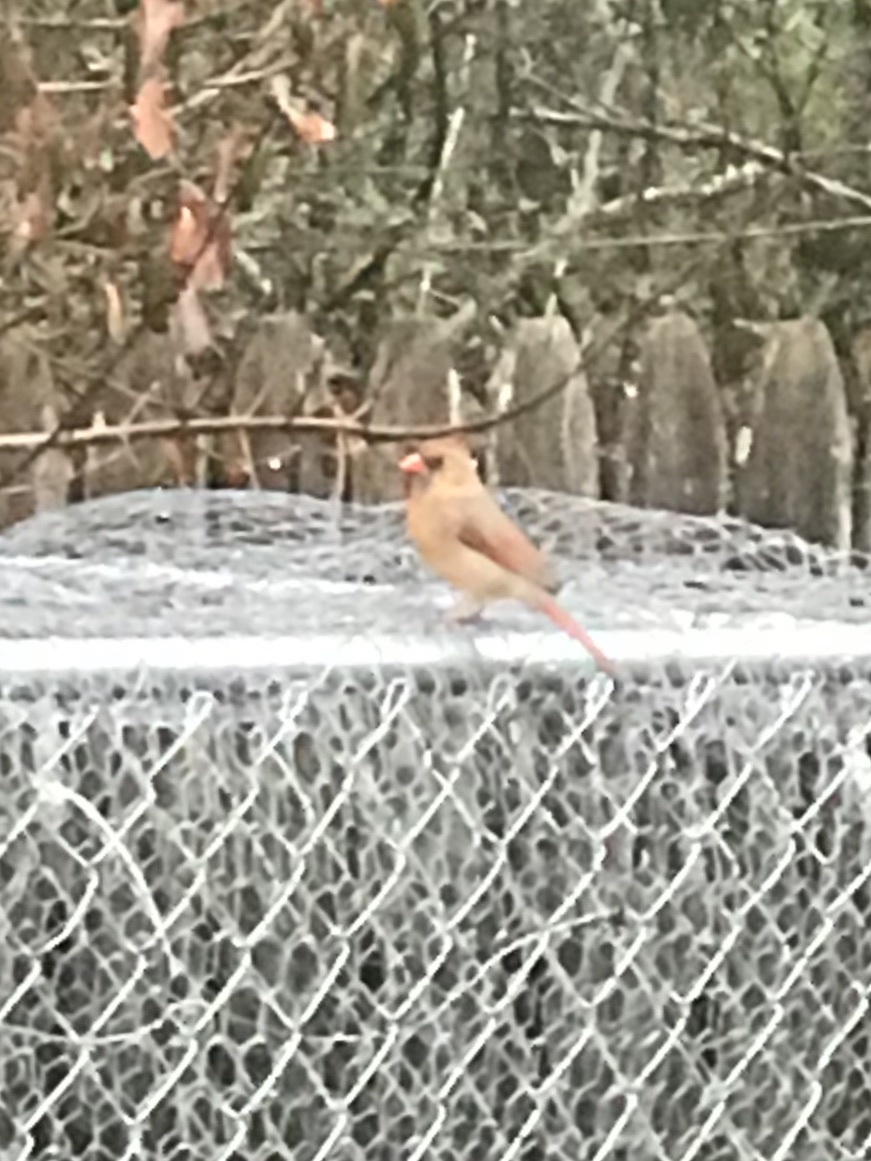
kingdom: Animalia
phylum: Chordata
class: Aves
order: Passeriformes
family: Cardinalidae
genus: Cardinalis
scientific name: Cardinalis cardinalis
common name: Northern cardinal
